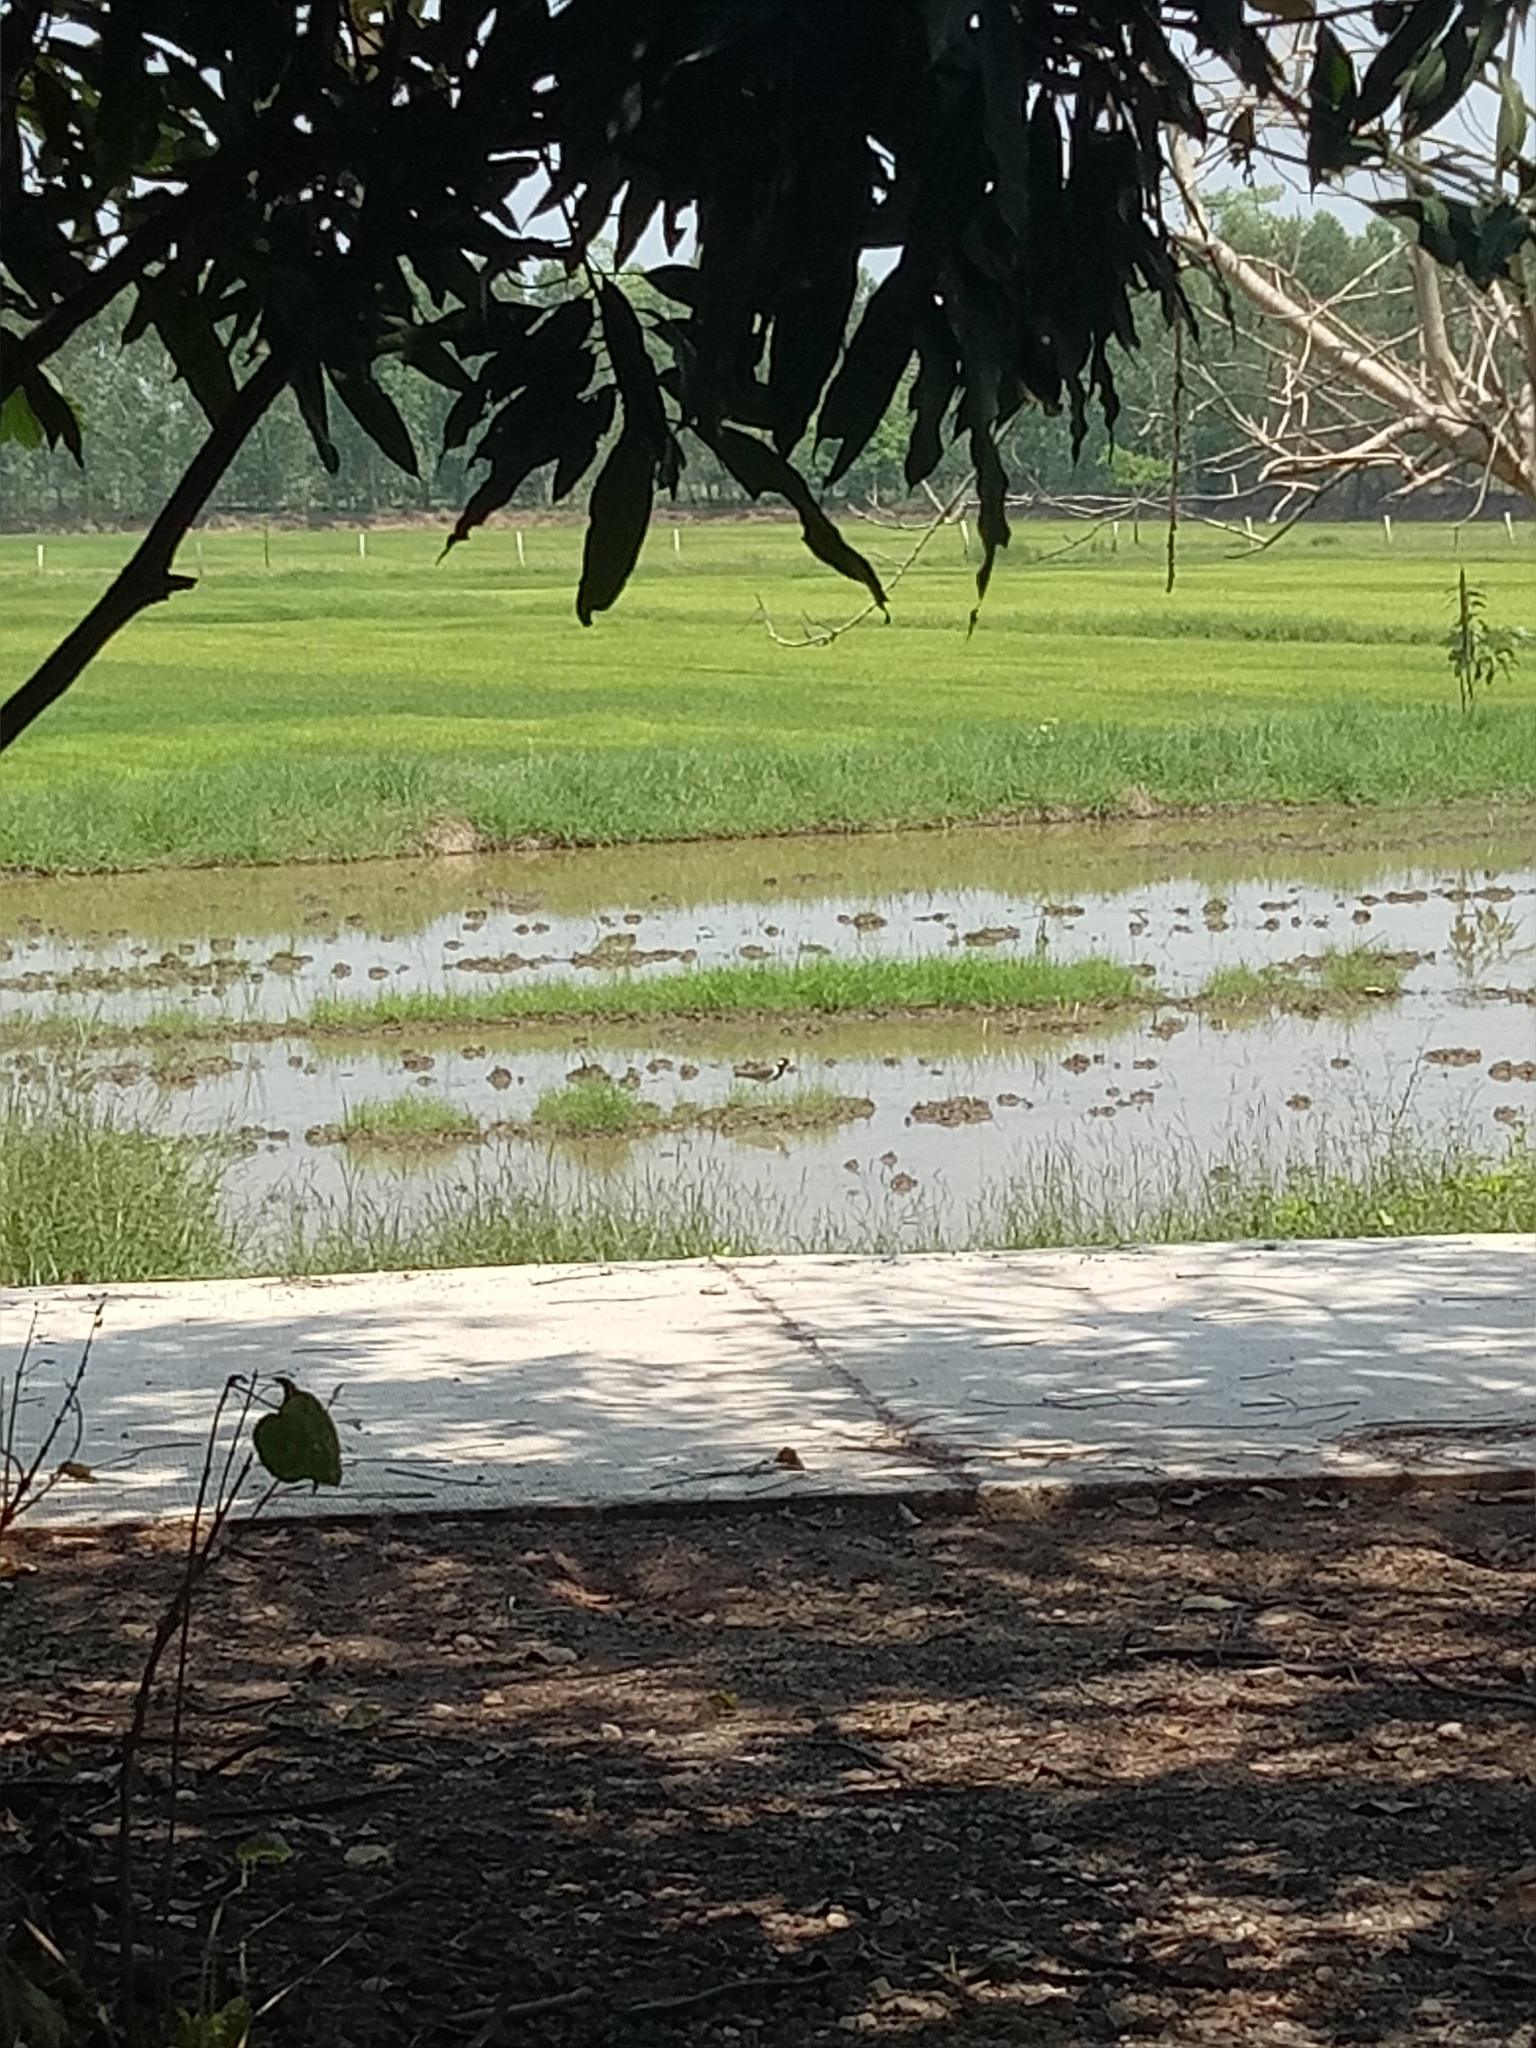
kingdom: Animalia
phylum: Chordata
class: Aves
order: Charadriiformes
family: Charadriidae
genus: Vanellus
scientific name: Vanellus indicus
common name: Red-wattled lapwing
